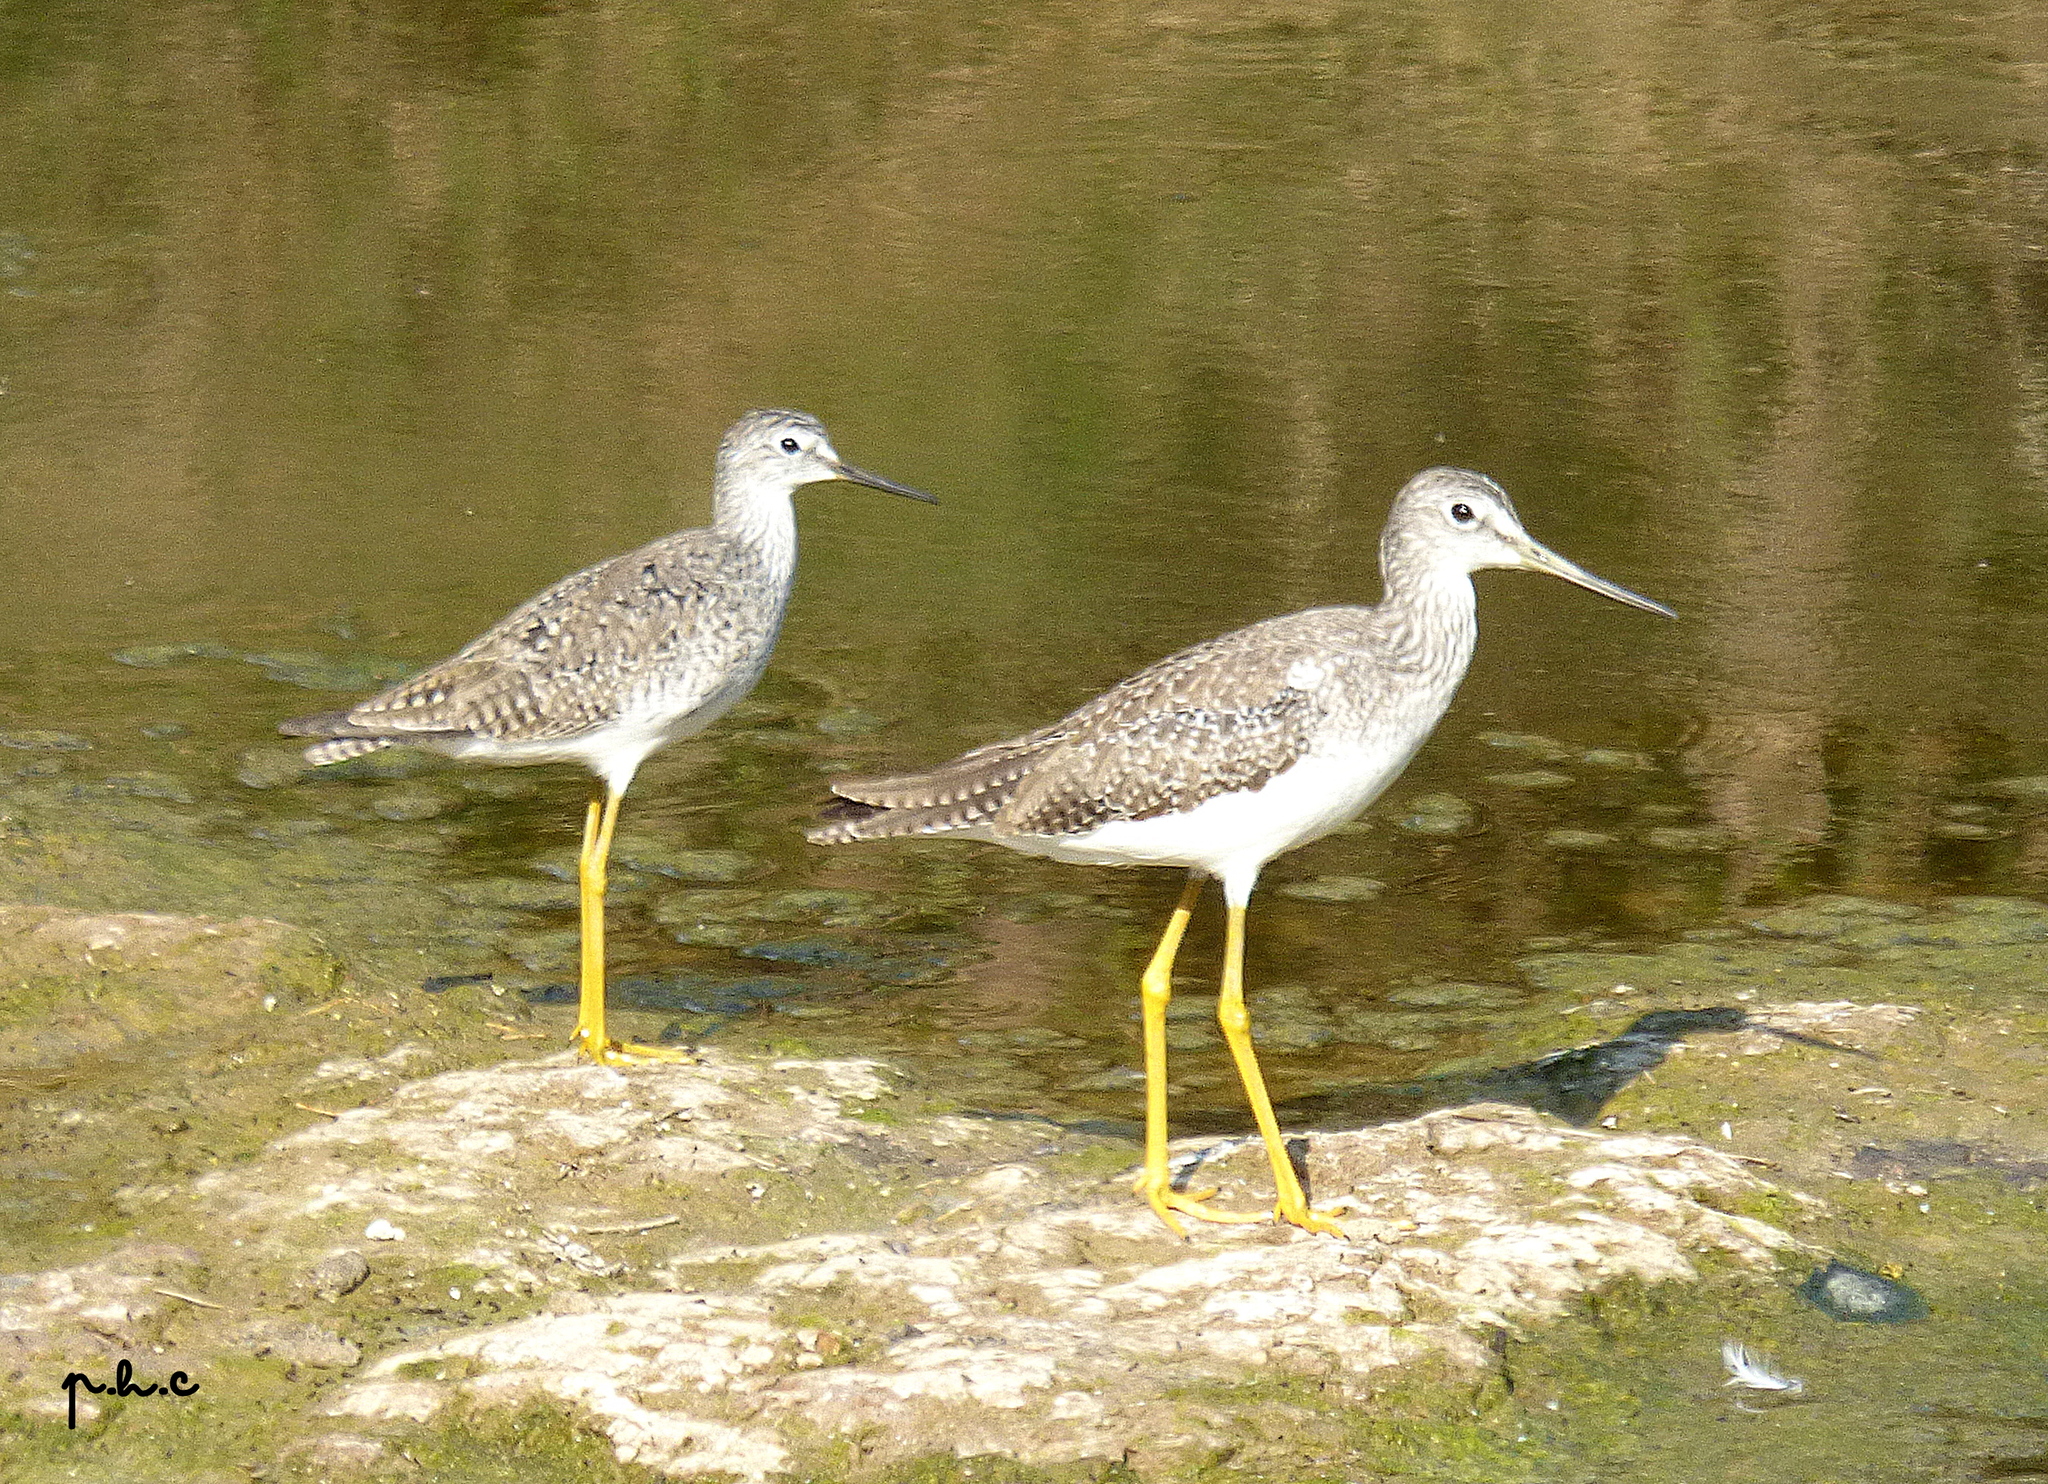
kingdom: Animalia
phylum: Chordata
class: Aves
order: Charadriiformes
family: Scolopacidae
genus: Tringa
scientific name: Tringa melanoleuca
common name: Greater yellowlegs
